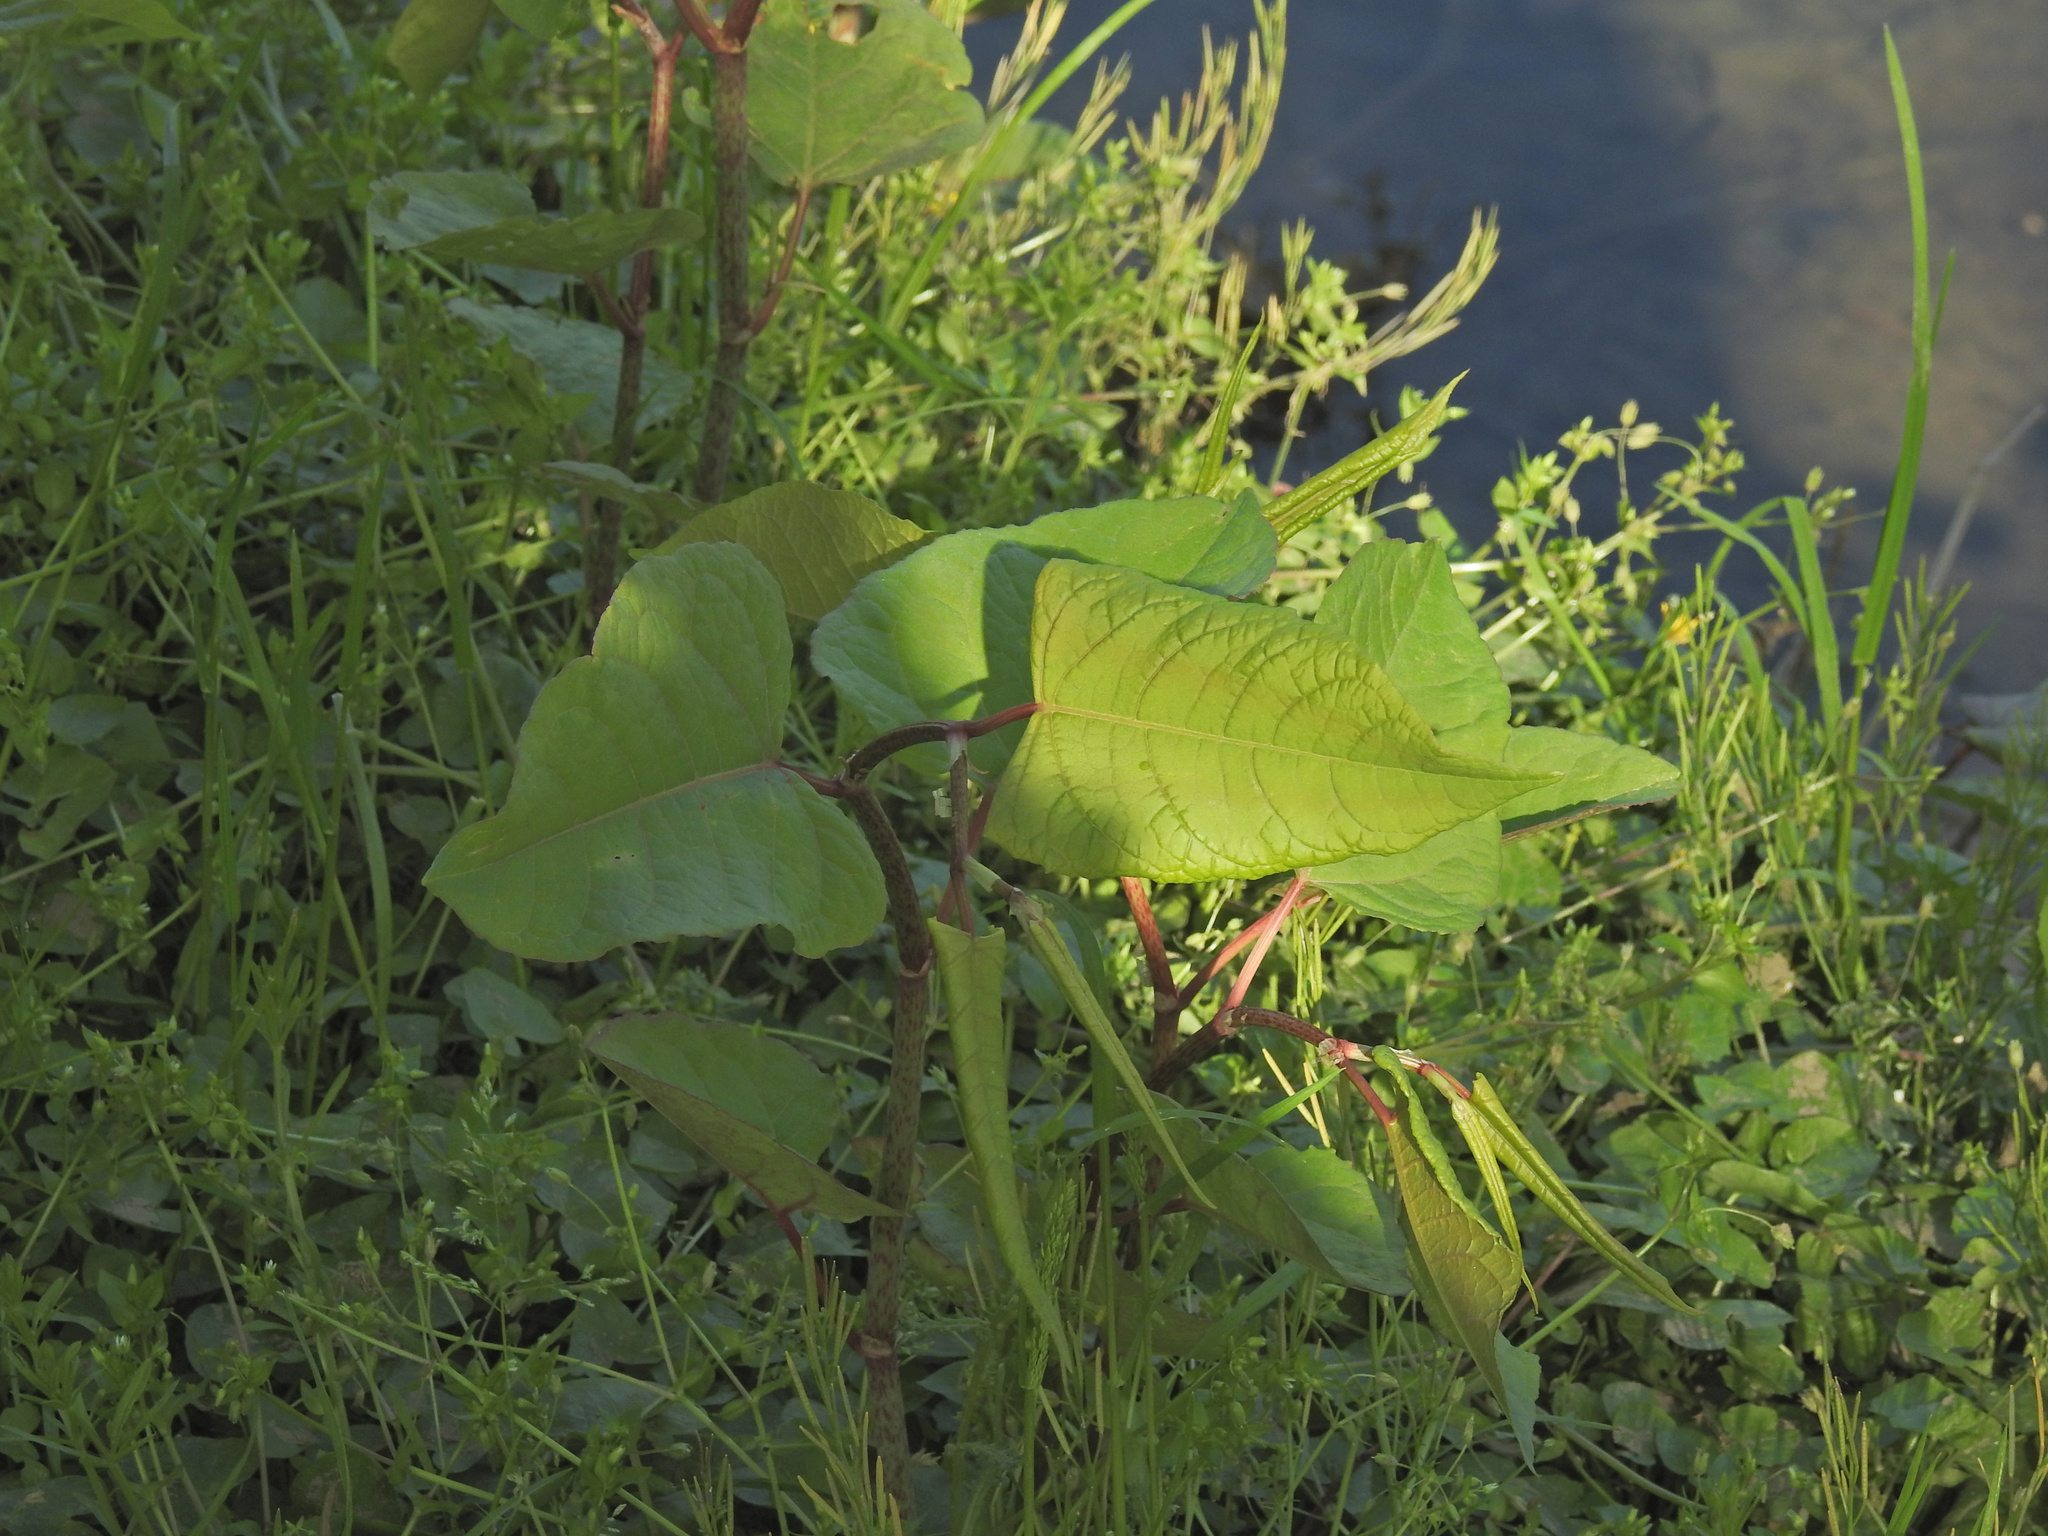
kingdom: Plantae
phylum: Tracheophyta
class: Magnoliopsida
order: Caryophyllales
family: Polygonaceae
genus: Reynoutria
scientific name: Reynoutria japonica
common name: Japanese knotweed
